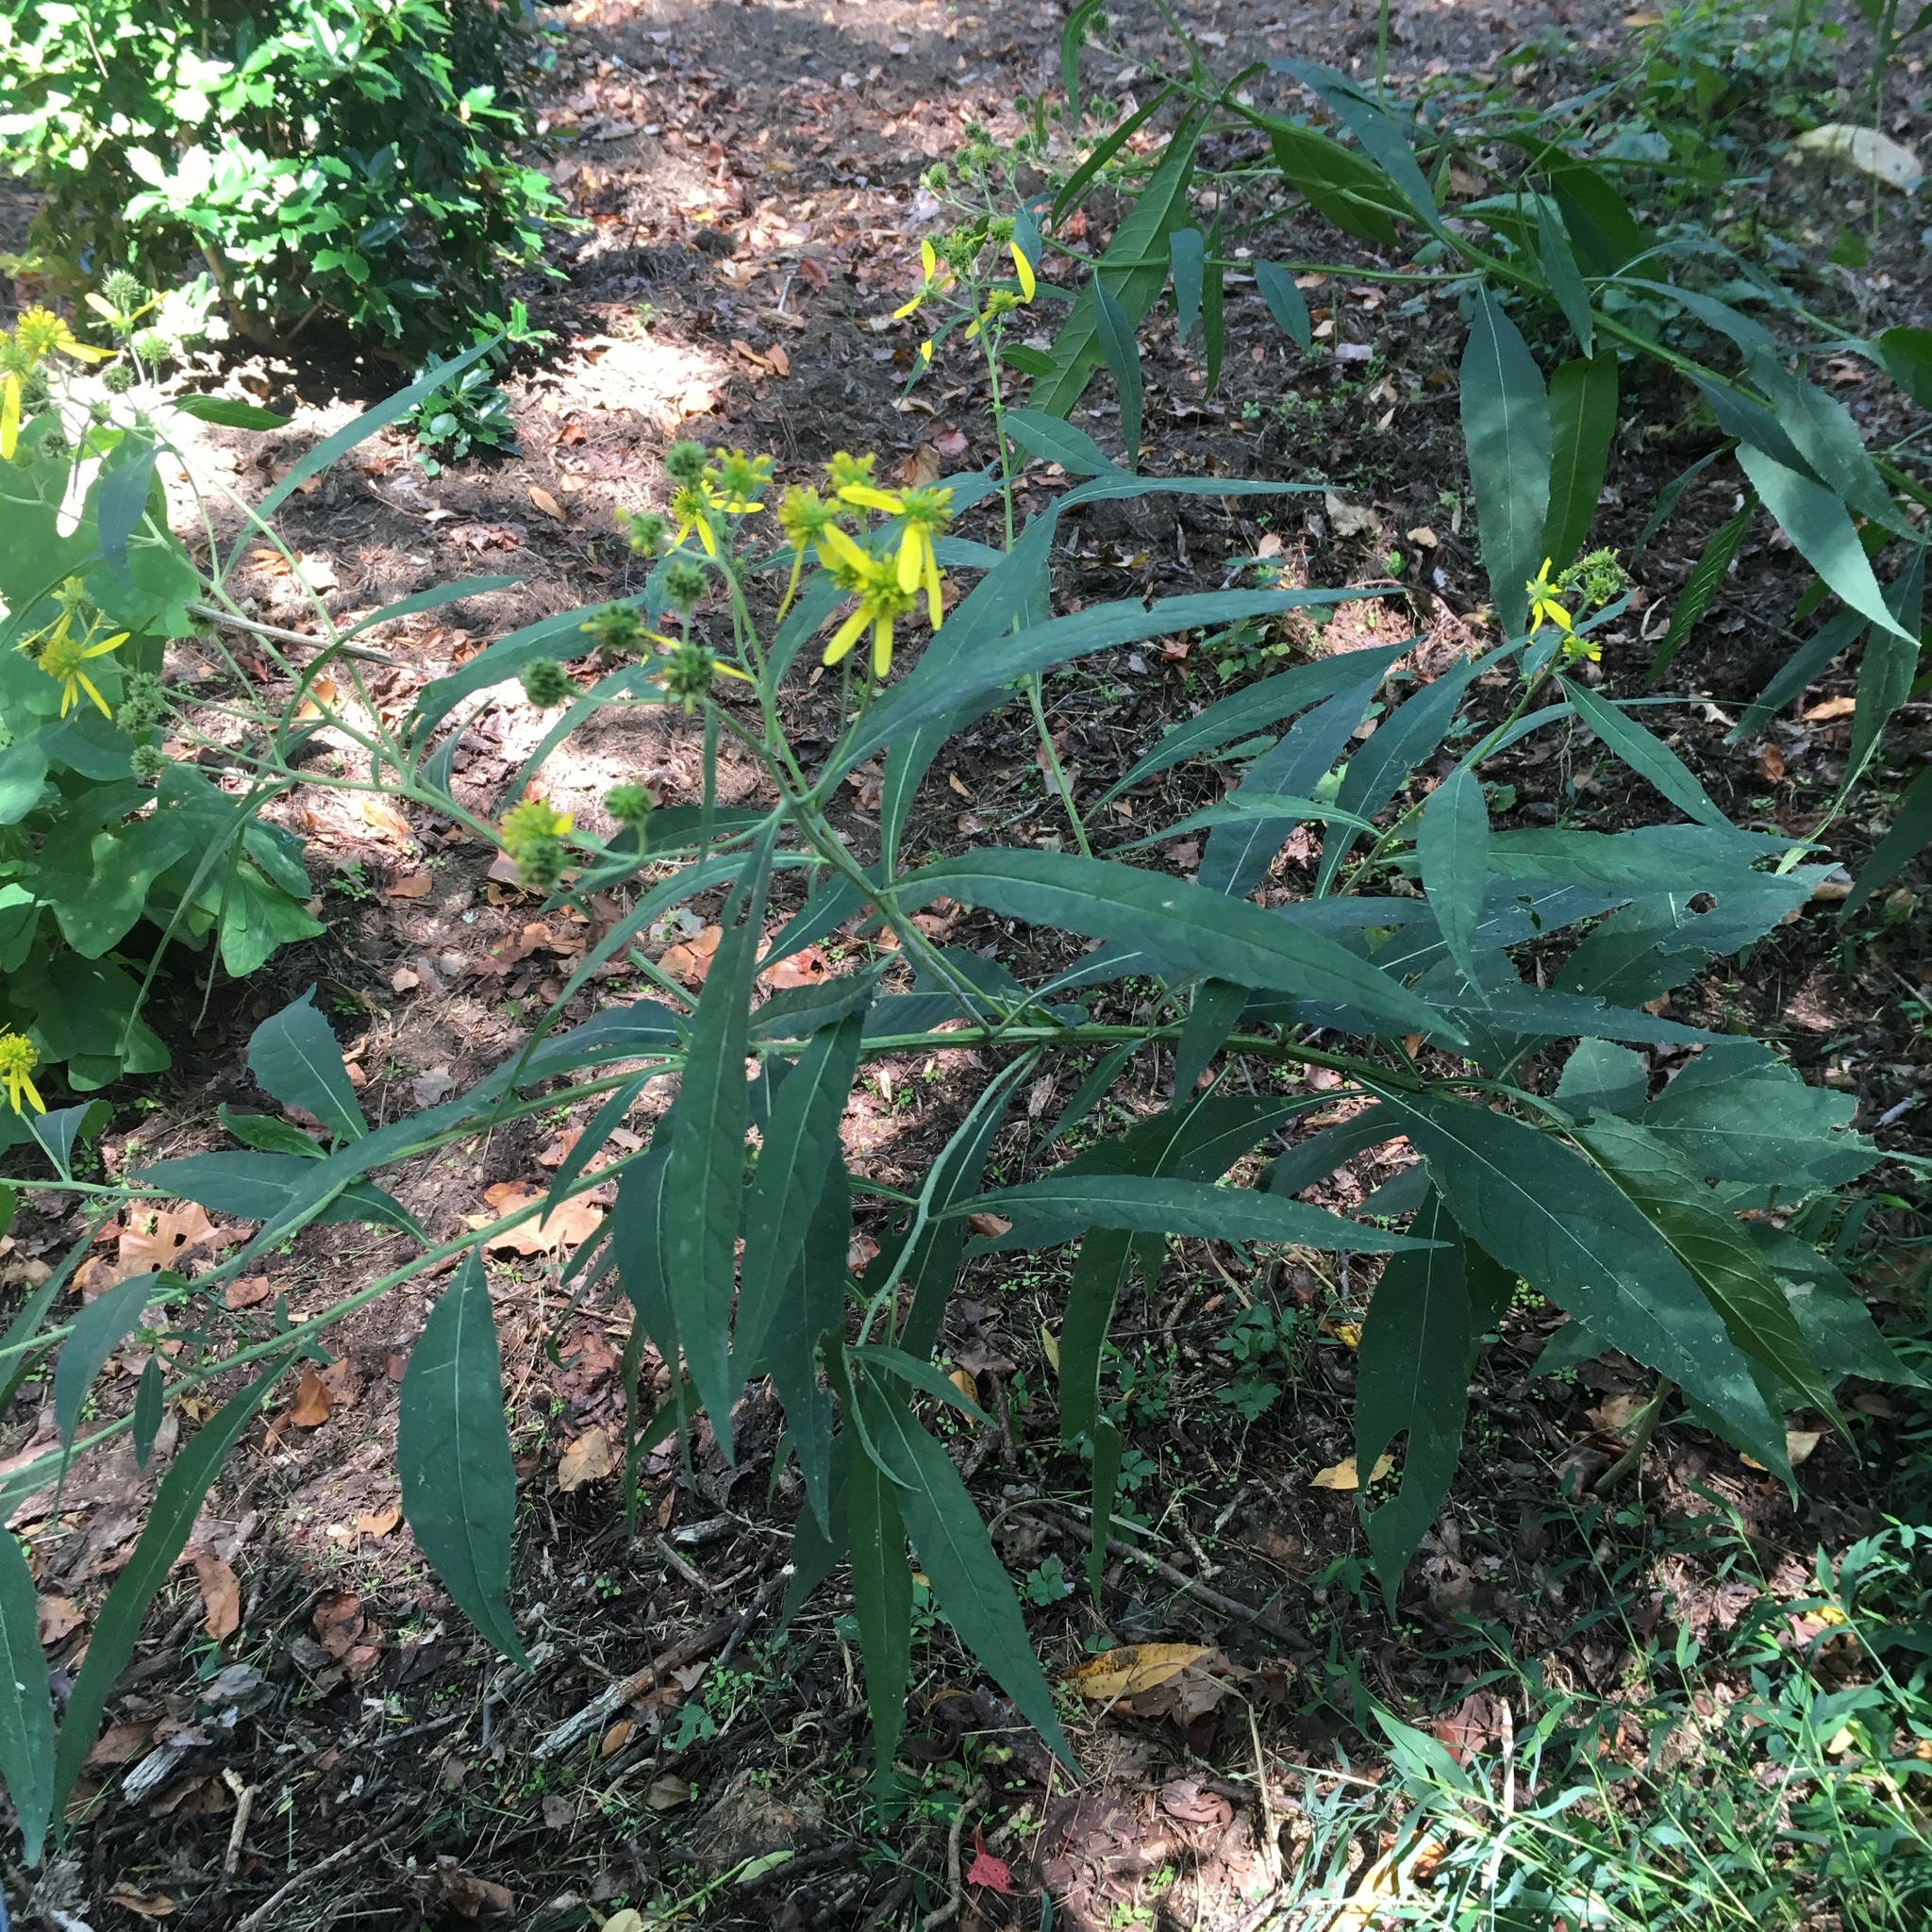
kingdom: Plantae
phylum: Tracheophyta
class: Magnoliopsida
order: Asterales
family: Asteraceae
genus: Verbesina
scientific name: Verbesina alternifolia
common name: Wingstem
